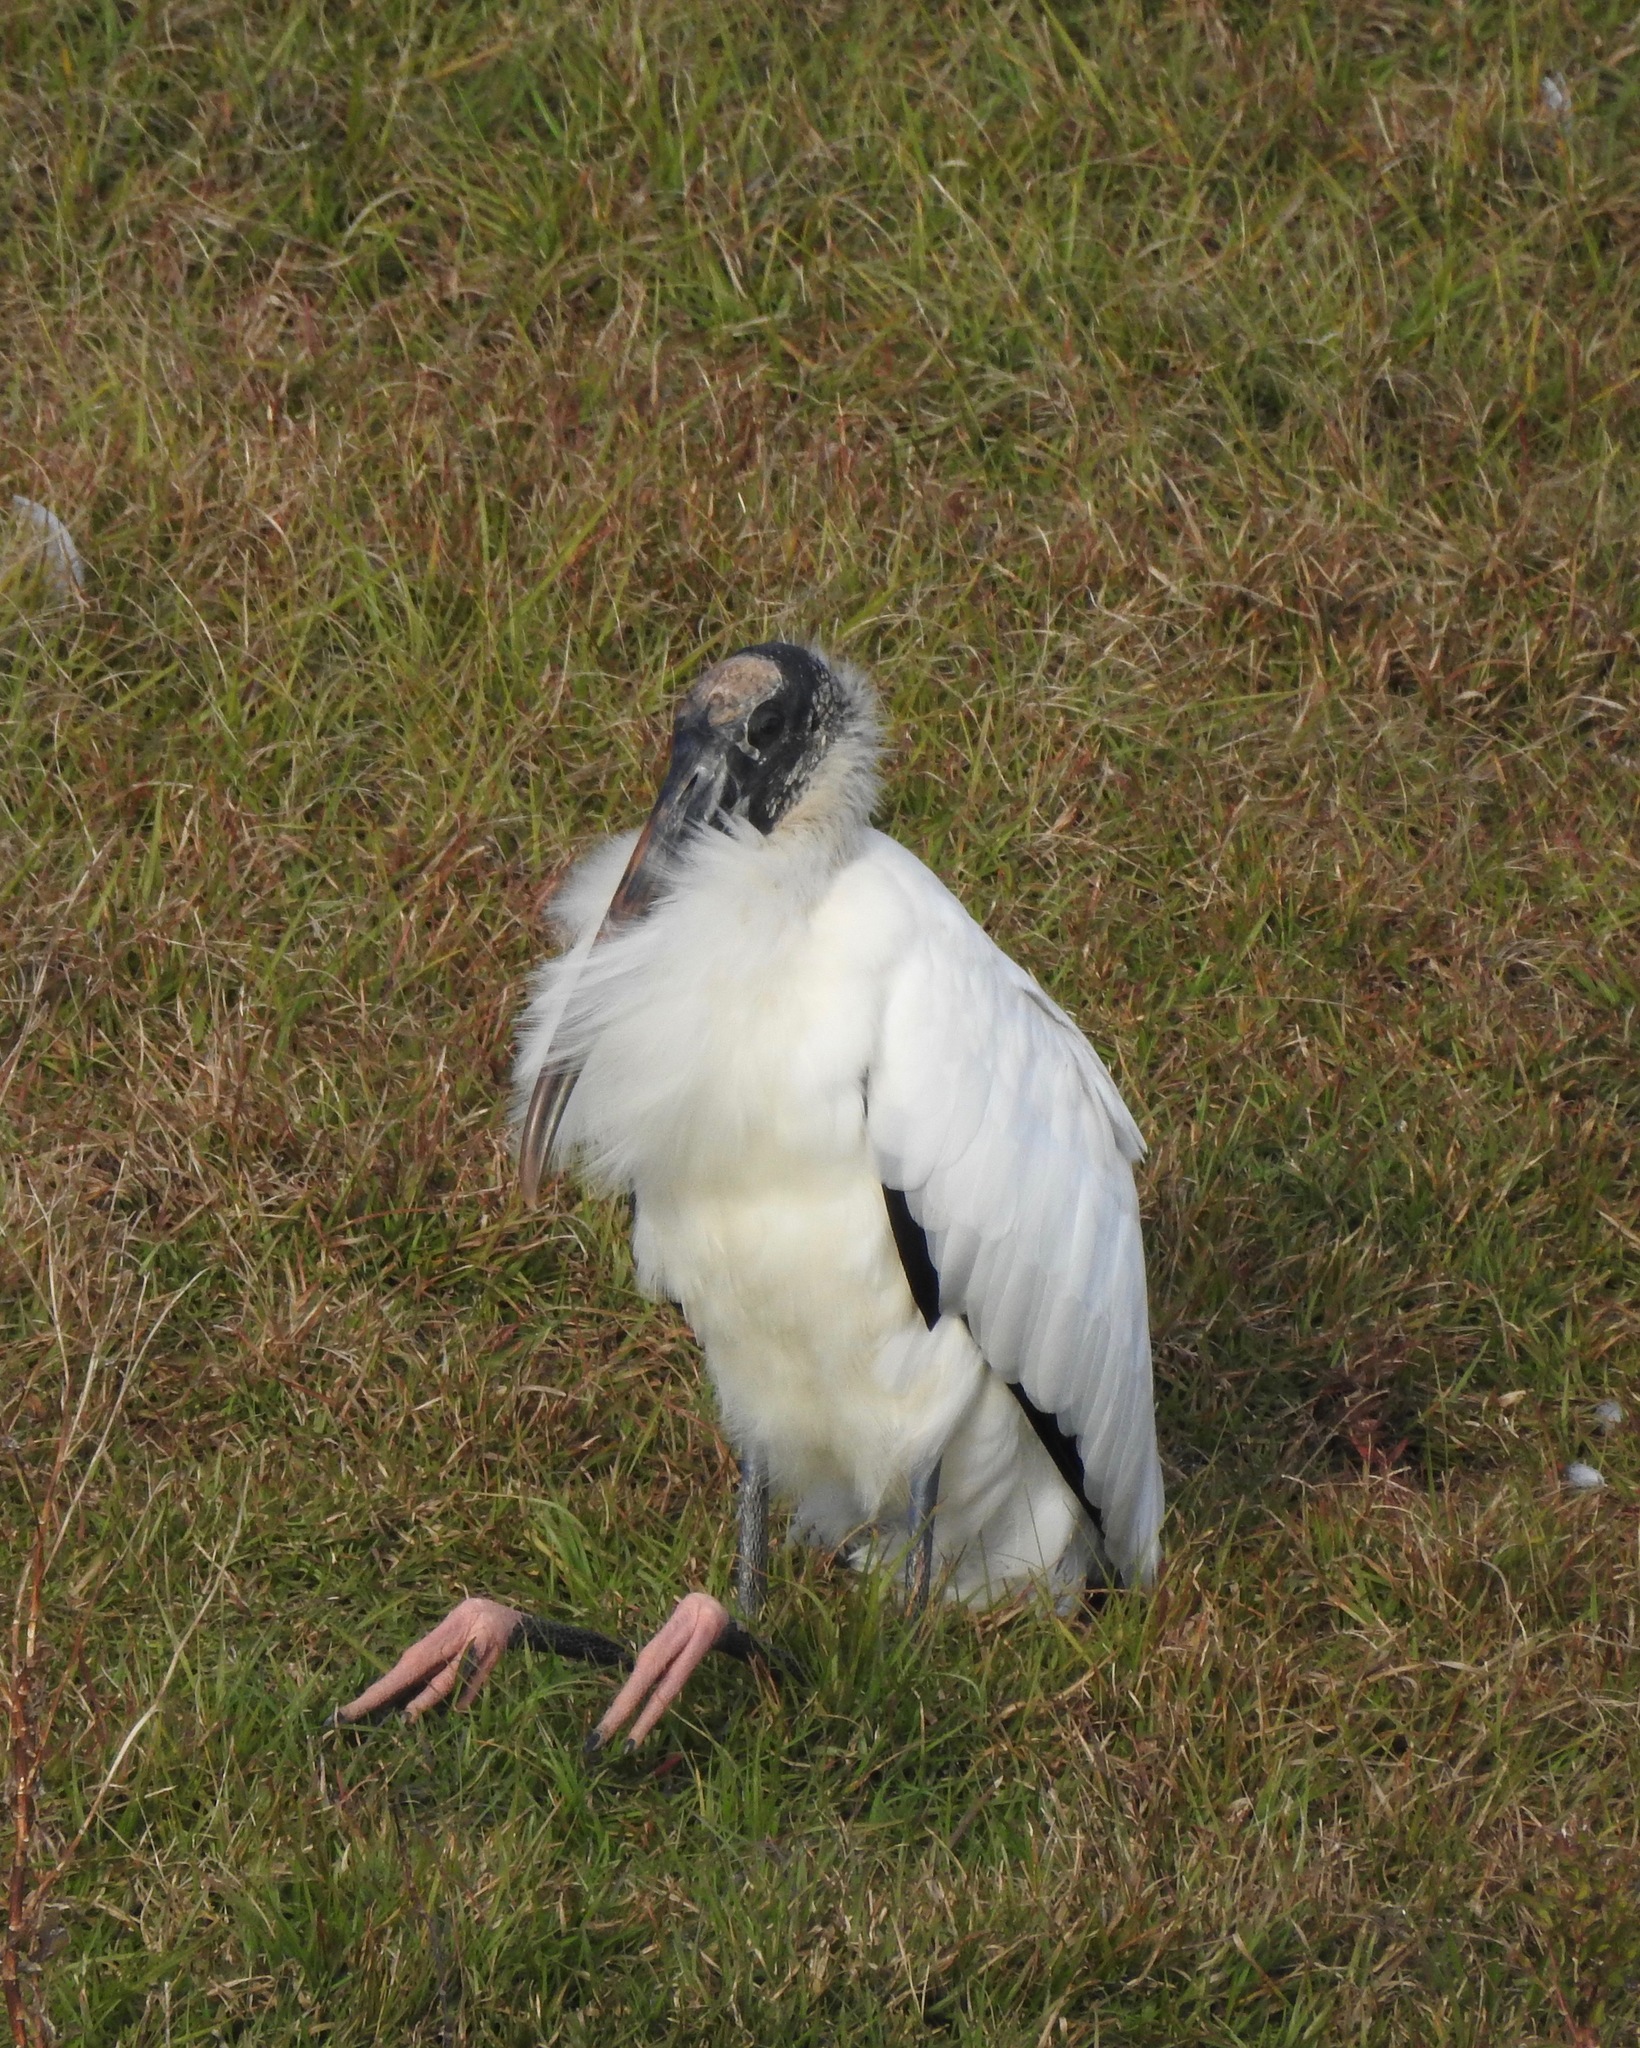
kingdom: Animalia
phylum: Chordata
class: Aves
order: Ciconiiformes
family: Ciconiidae
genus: Mycteria
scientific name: Mycteria americana
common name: Wood stork
